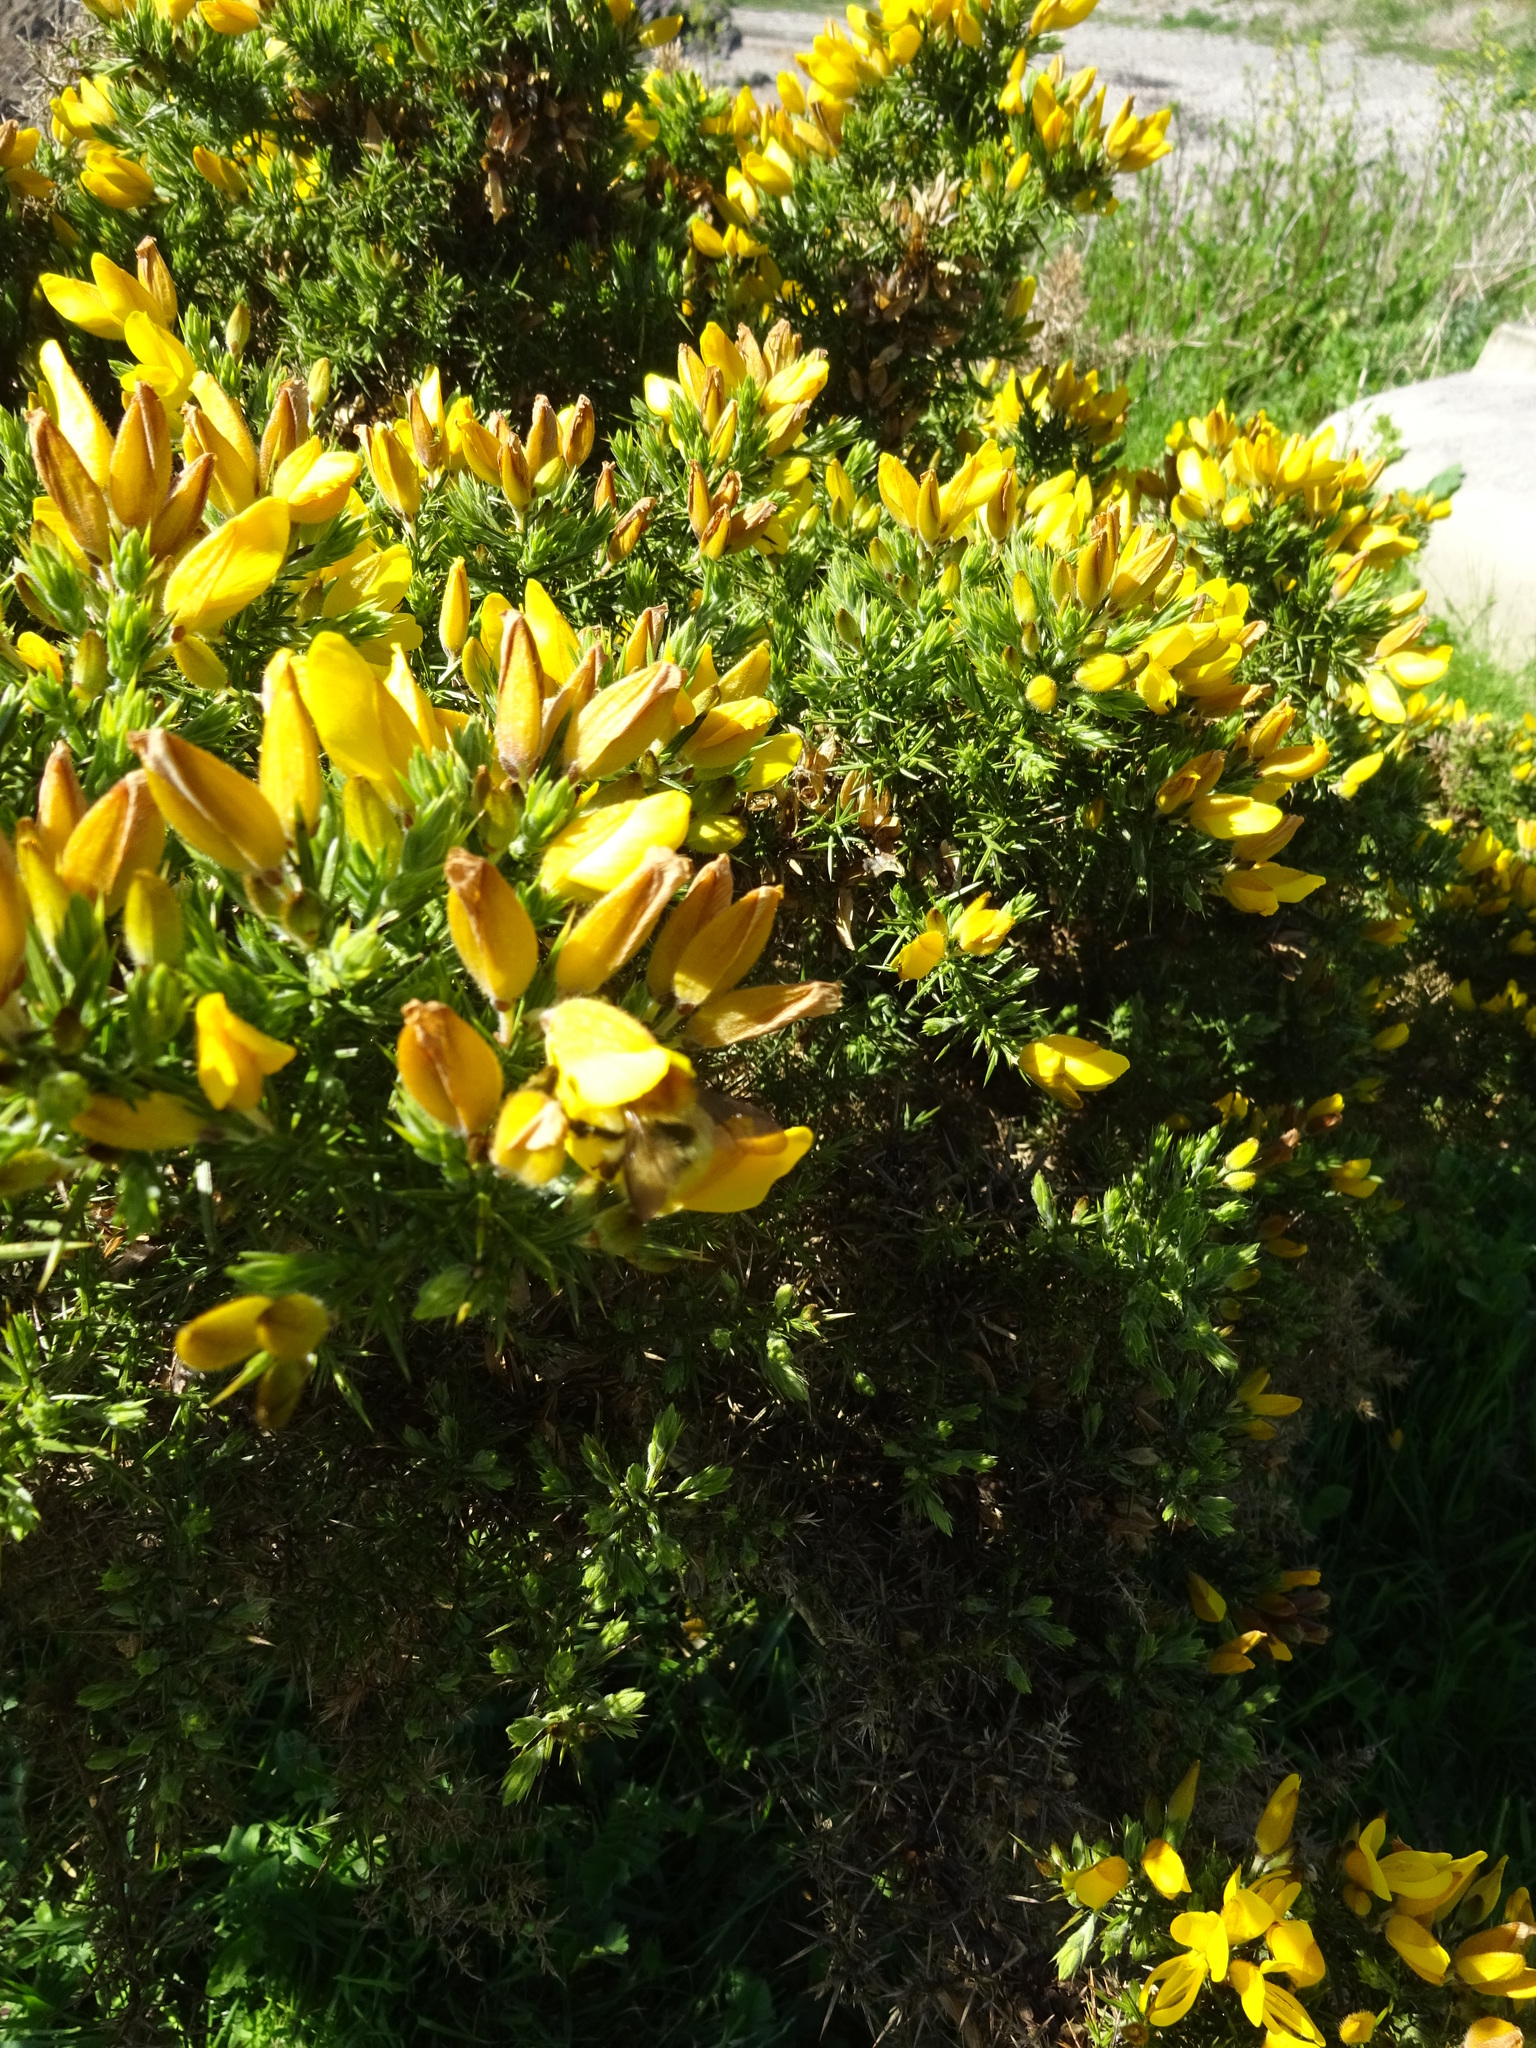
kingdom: Plantae
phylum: Tracheophyta
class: Magnoliopsida
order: Fabales
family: Fabaceae
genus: Ulex
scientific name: Ulex europaeus
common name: Common gorse
